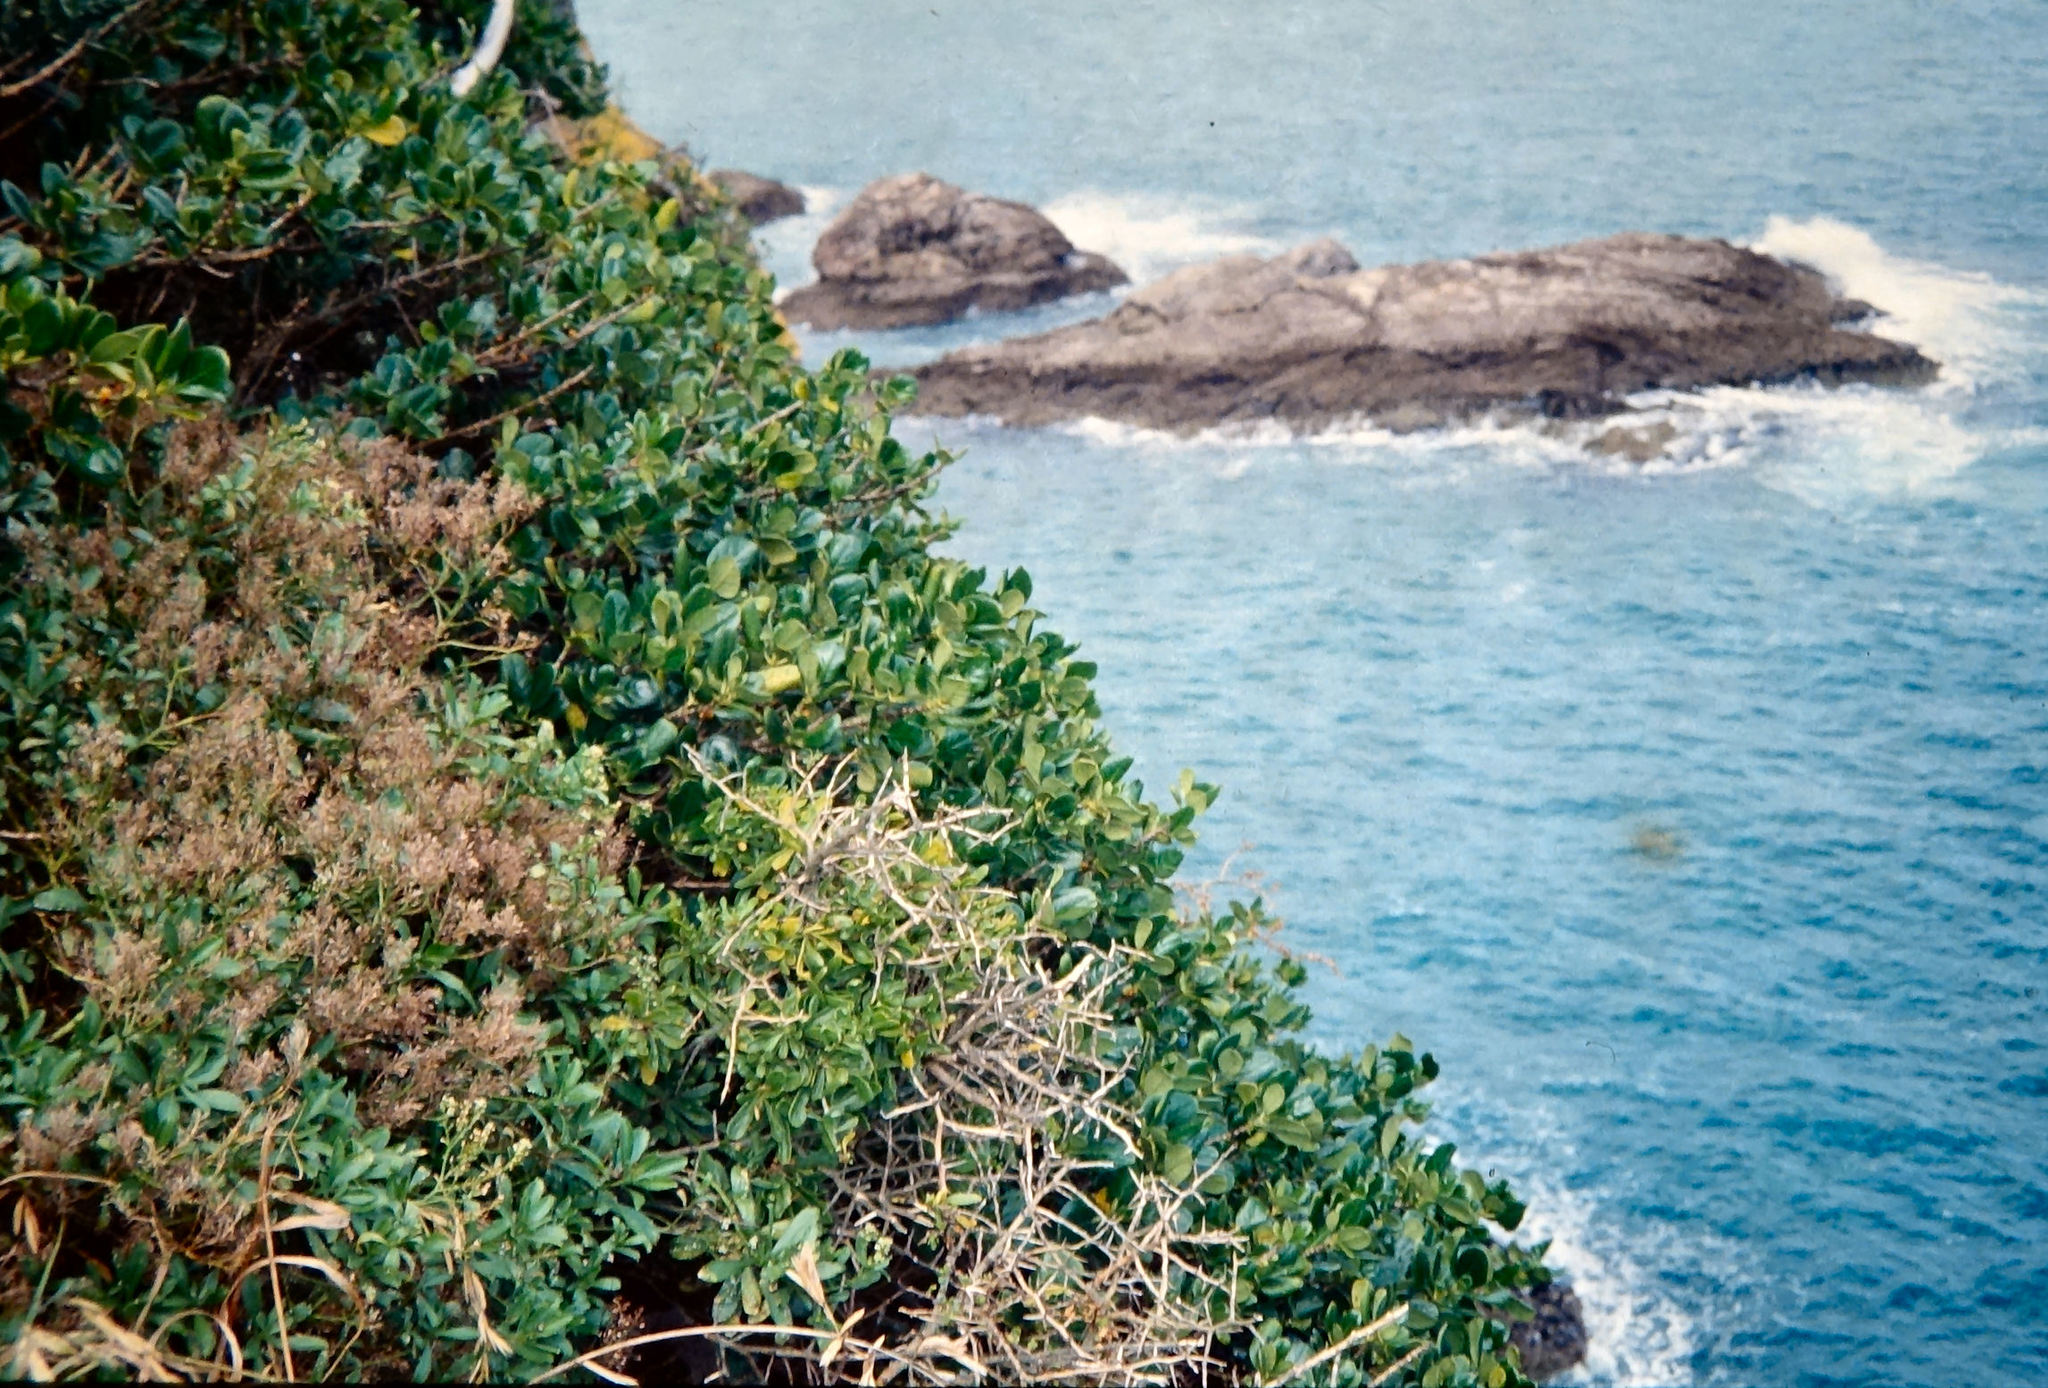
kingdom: Plantae
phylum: Tracheophyta
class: Magnoliopsida
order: Brassicales
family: Brassicaceae
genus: Lepidium
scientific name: Lepidium oleraceum
